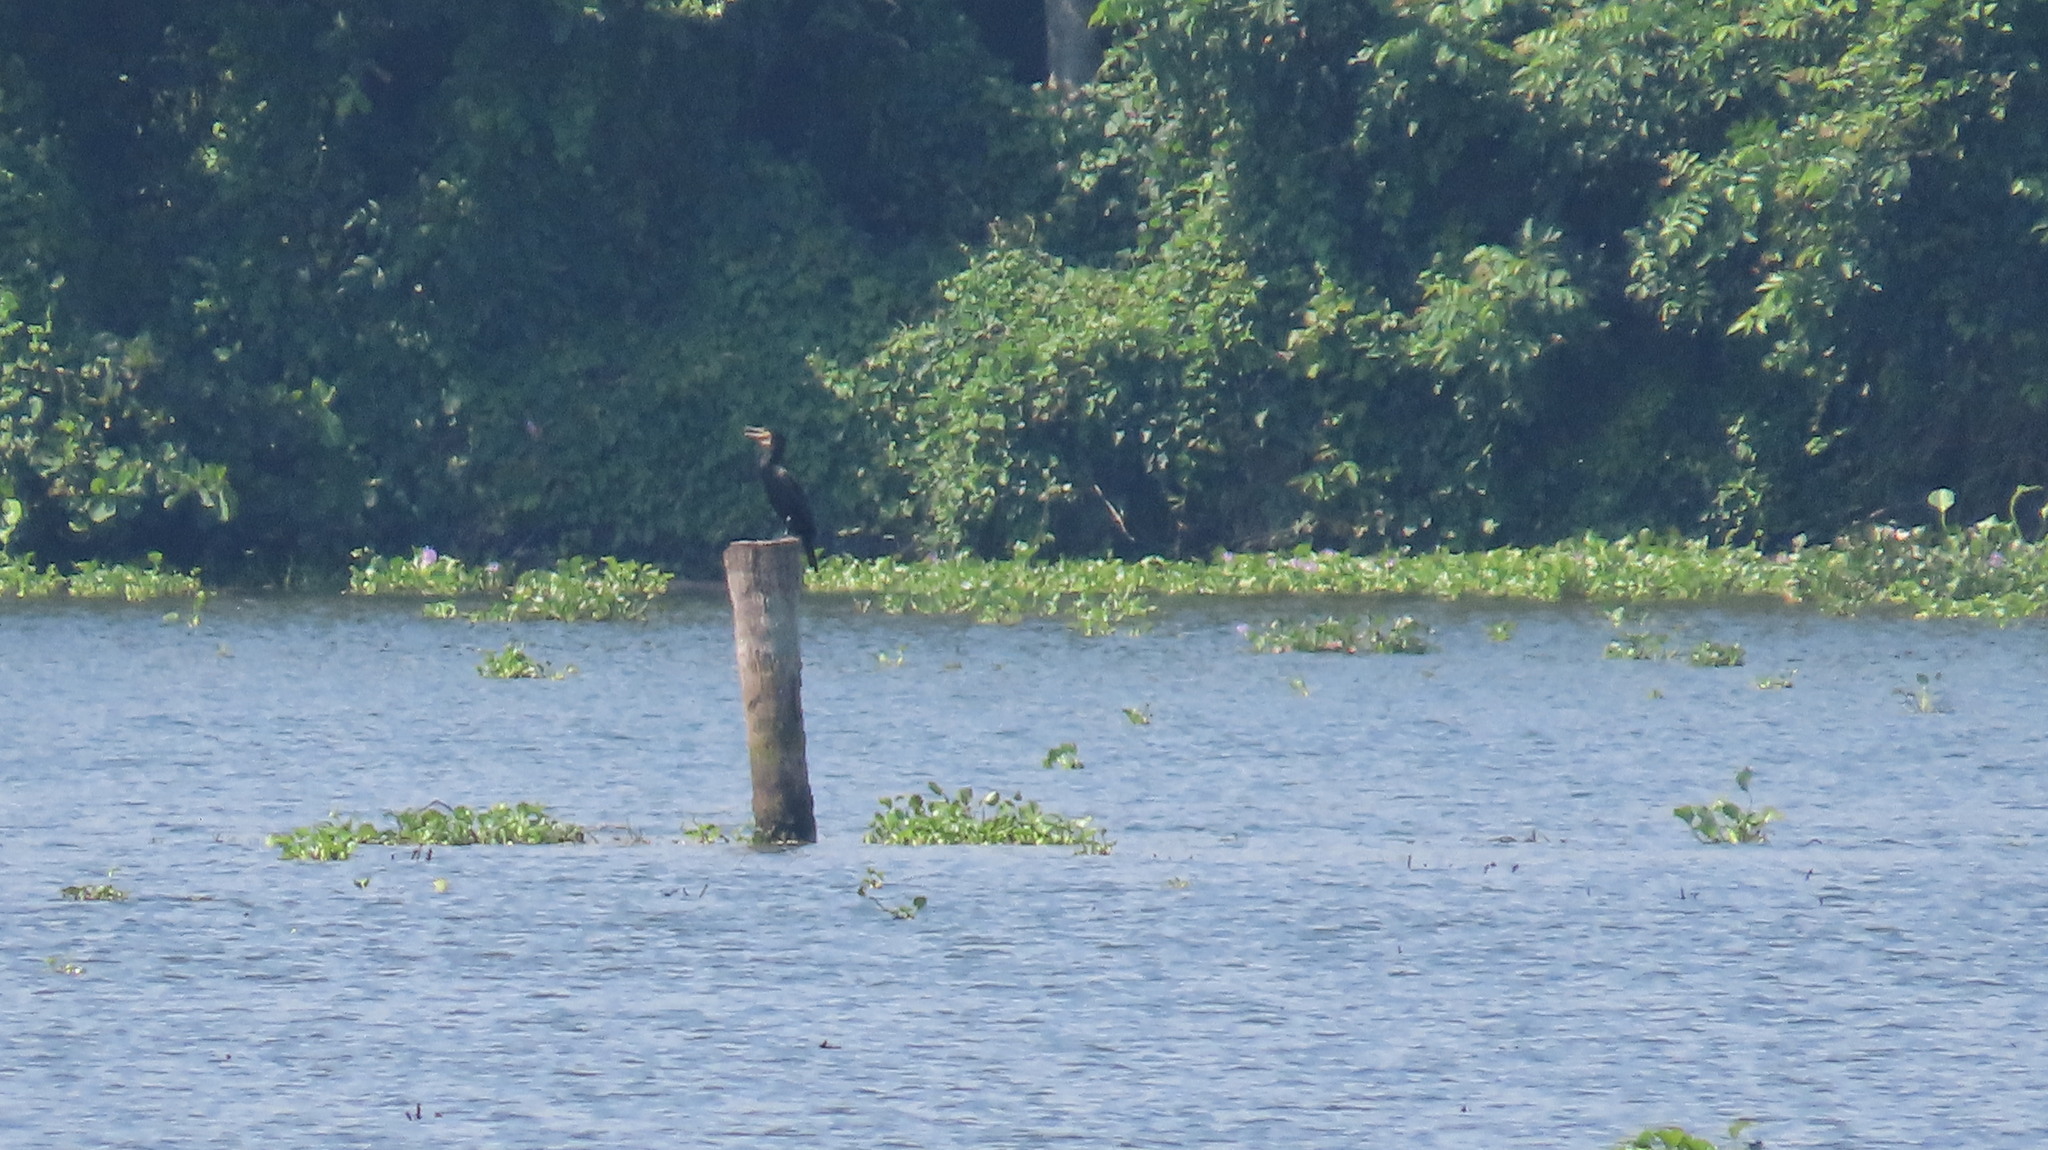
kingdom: Animalia
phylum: Chordata
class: Aves
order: Suliformes
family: Phalacrocoracidae
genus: Phalacrocorax
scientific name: Phalacrocorax carbo
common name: Great cormorant
